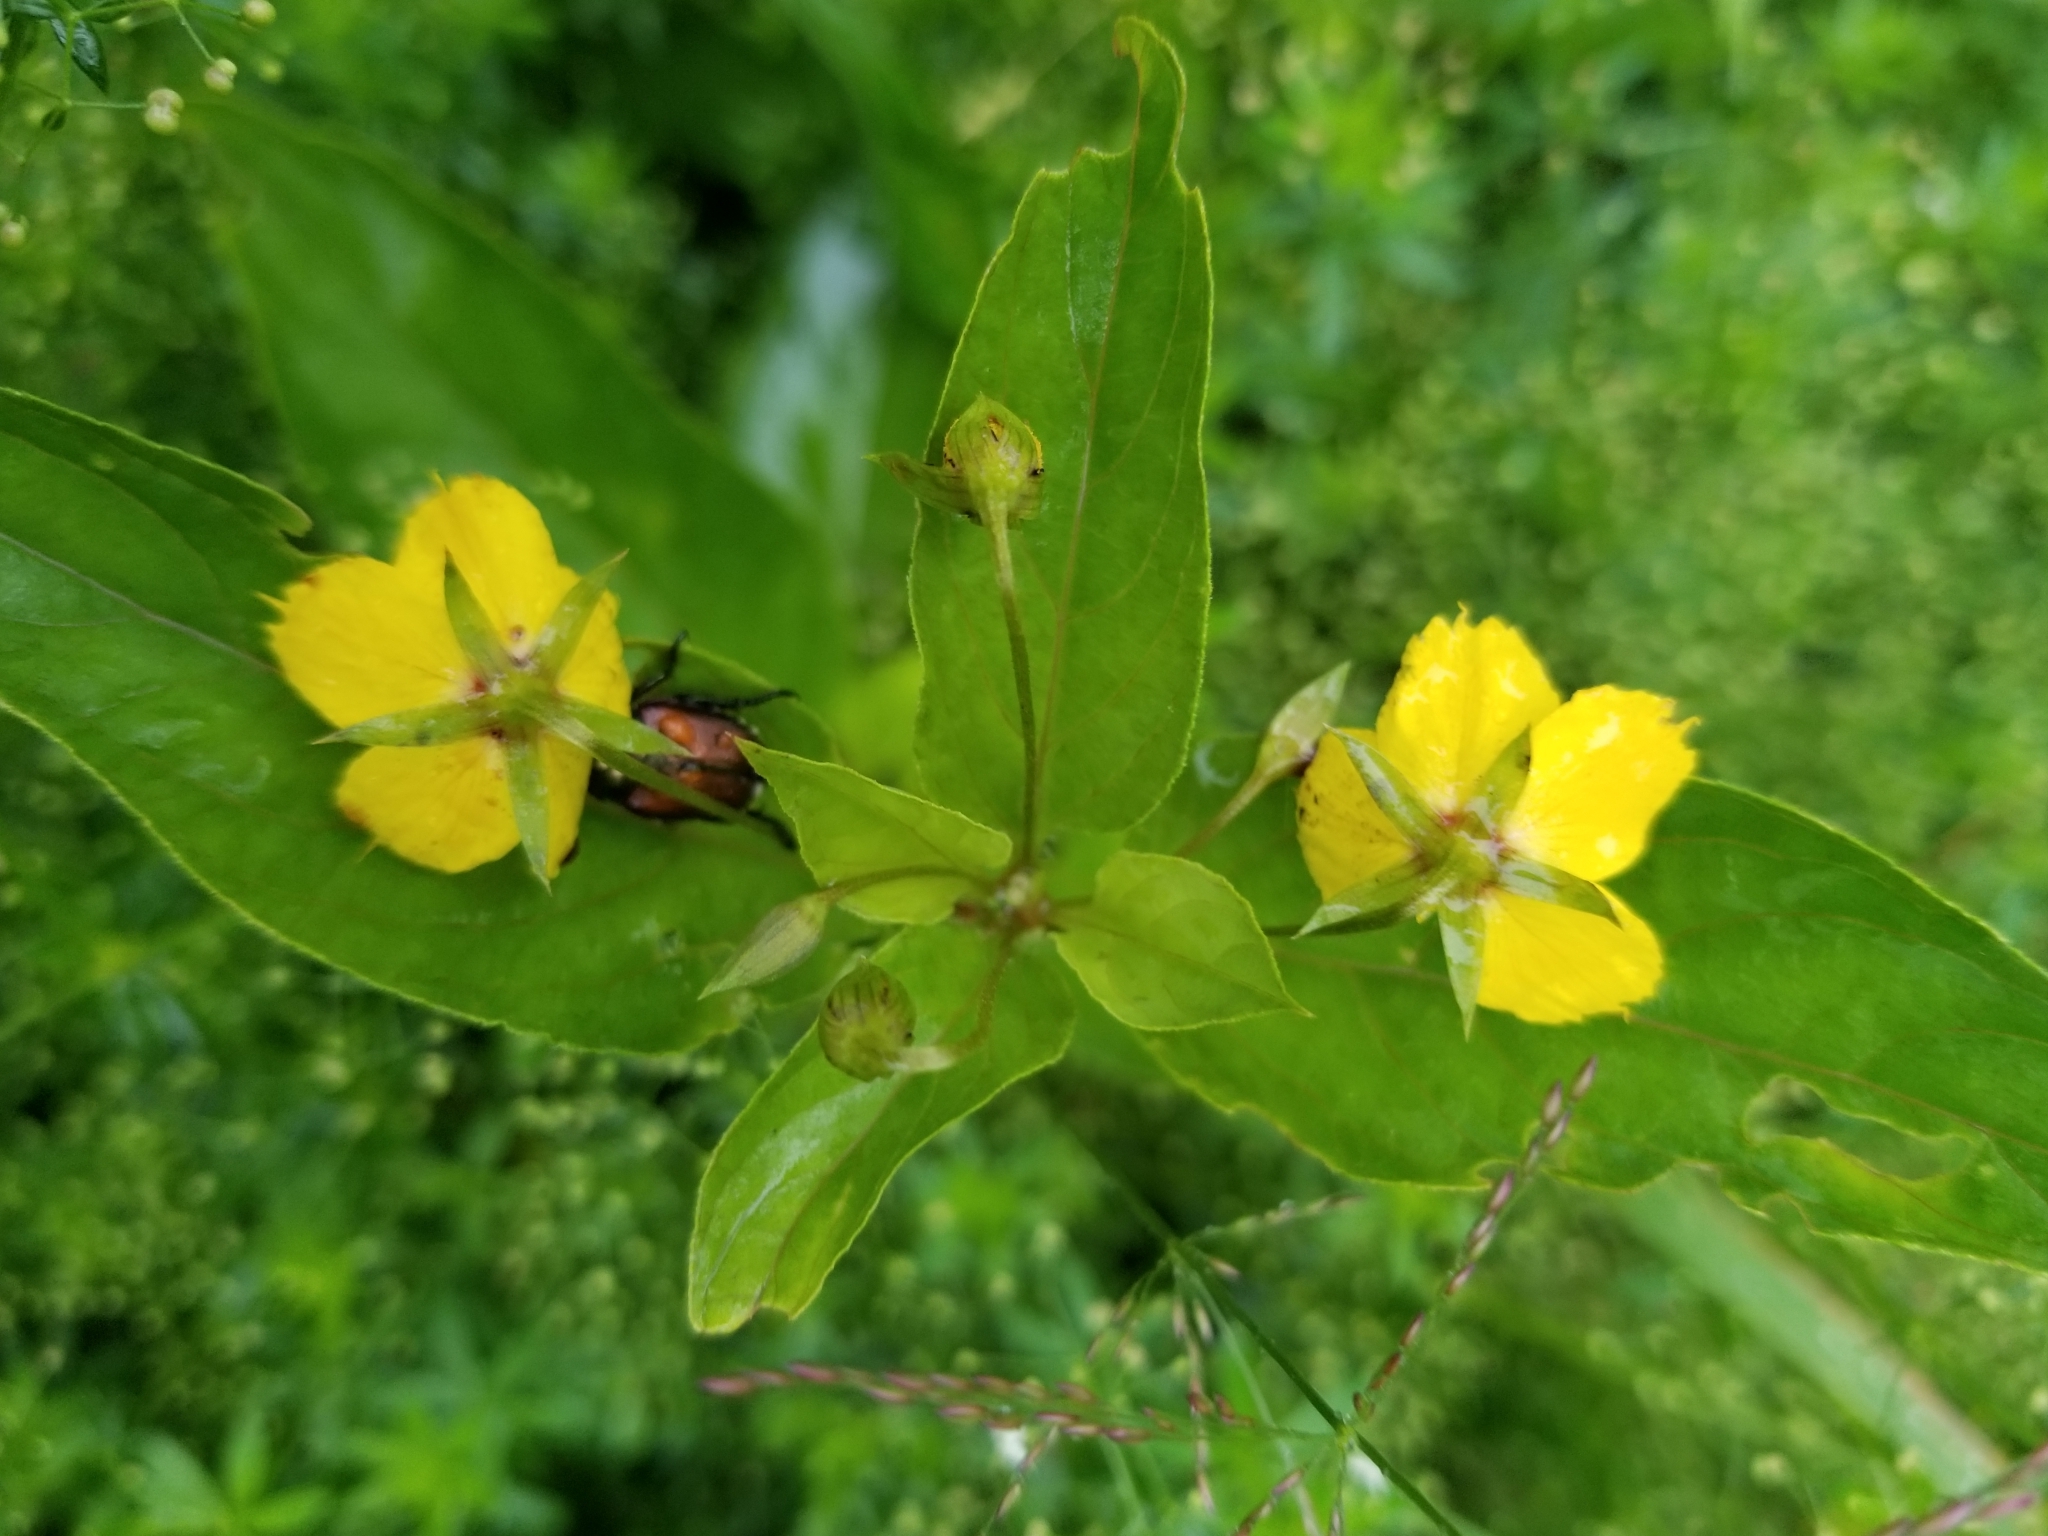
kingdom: Plantae
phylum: Tracheophyta
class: Magnoliopsida
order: Ericales
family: Primulaceae
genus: Lysimachia
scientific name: Lysimachia ciliata
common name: Fringed loosestrife
